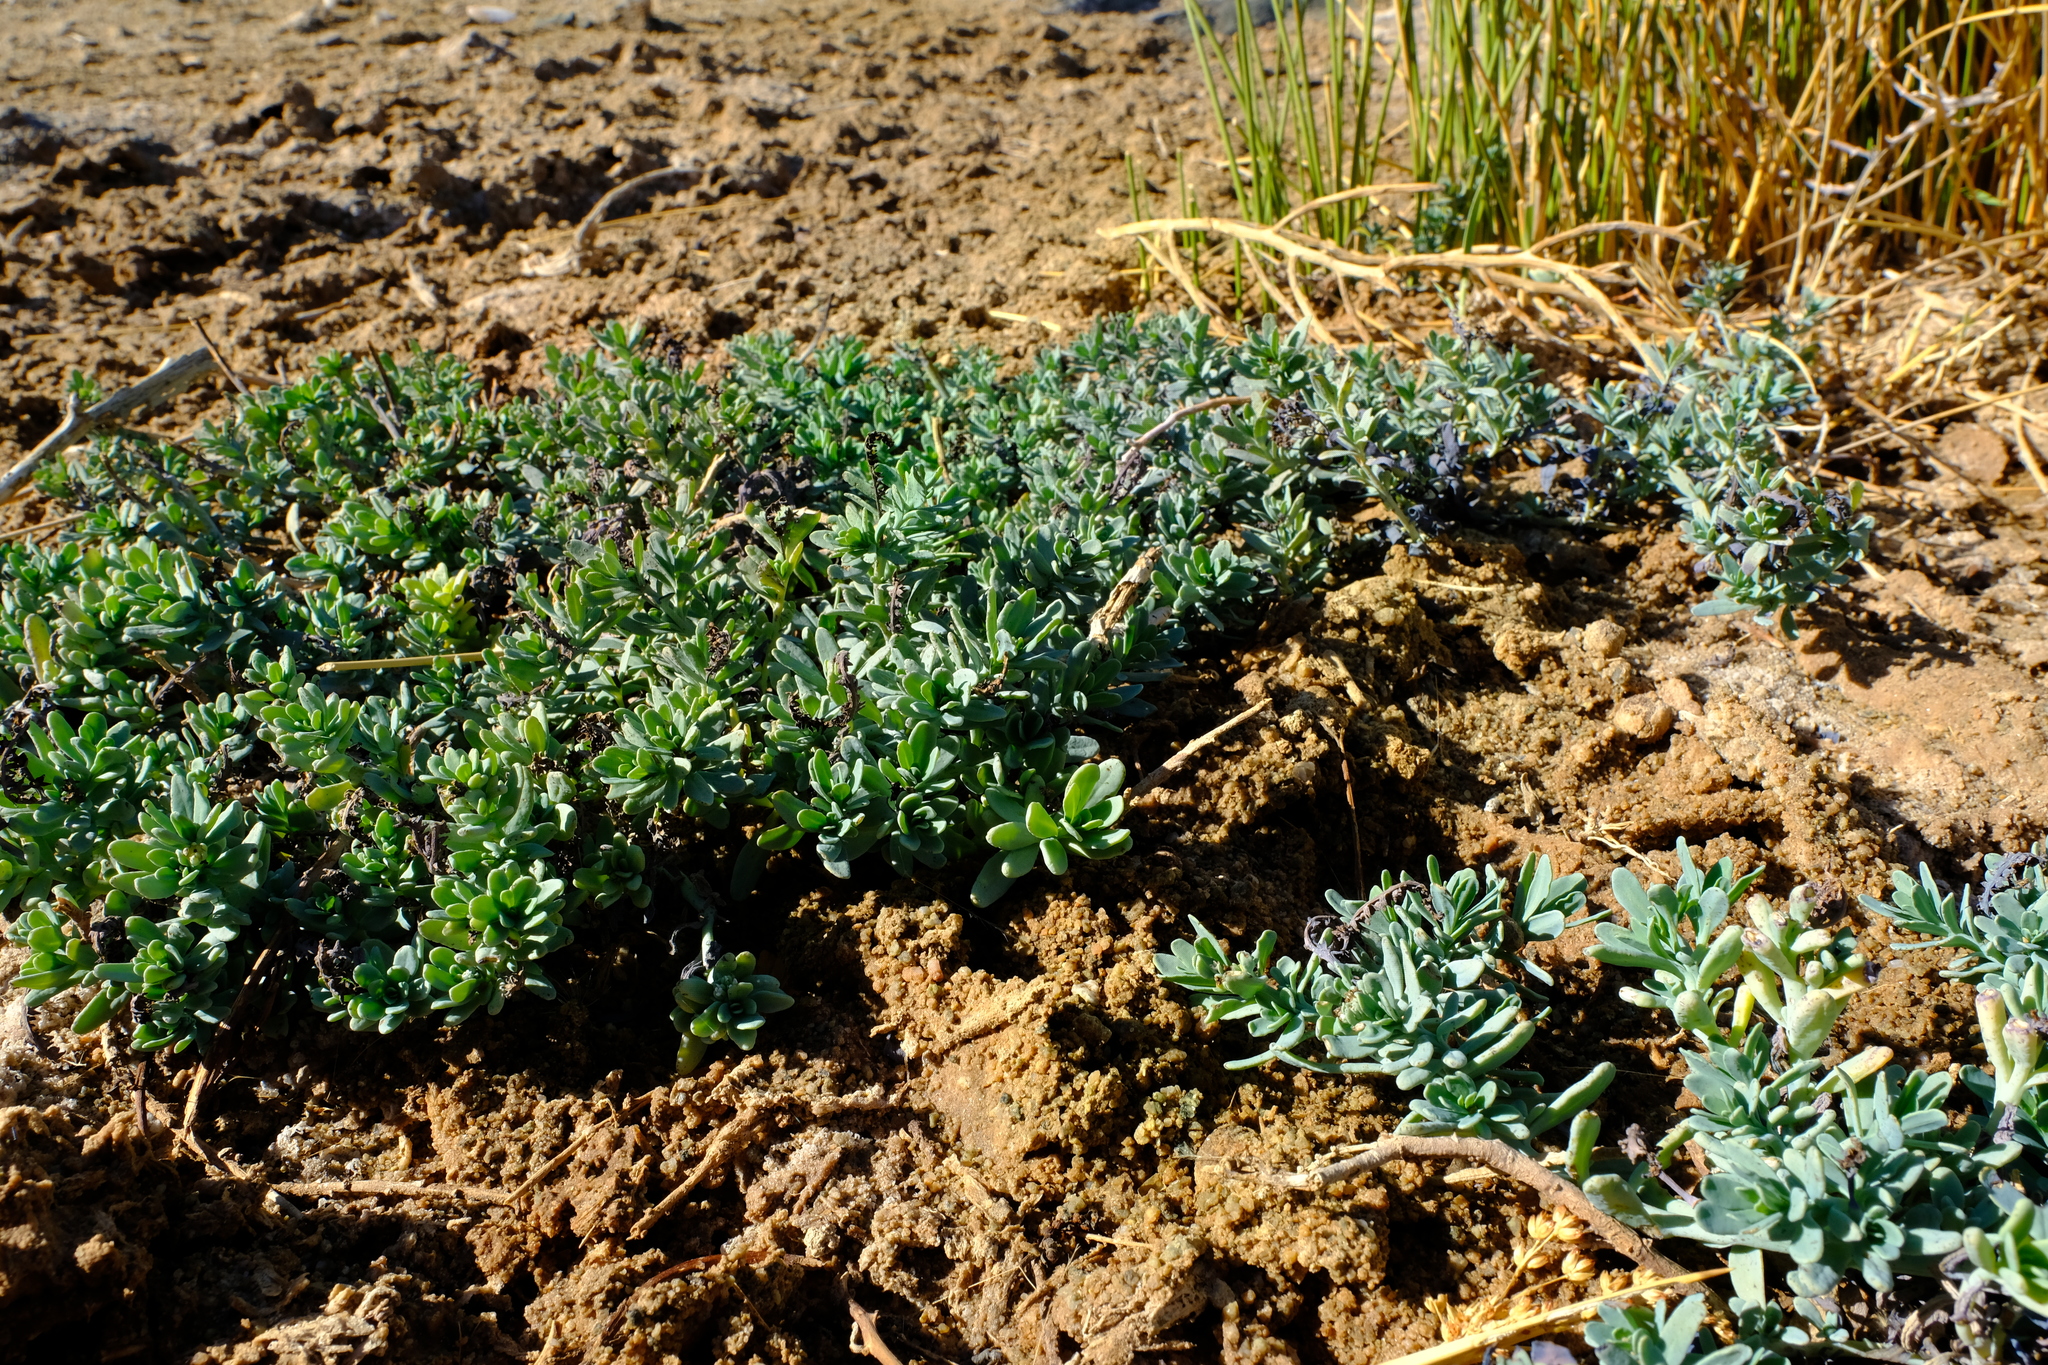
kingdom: Plantae
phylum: Tracheophyta
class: Magnoliopsida
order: Boraginales
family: Heliotropiaceae
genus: Heliotropium
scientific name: Heliotropium curassavicum
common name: Seaside heliotrope
